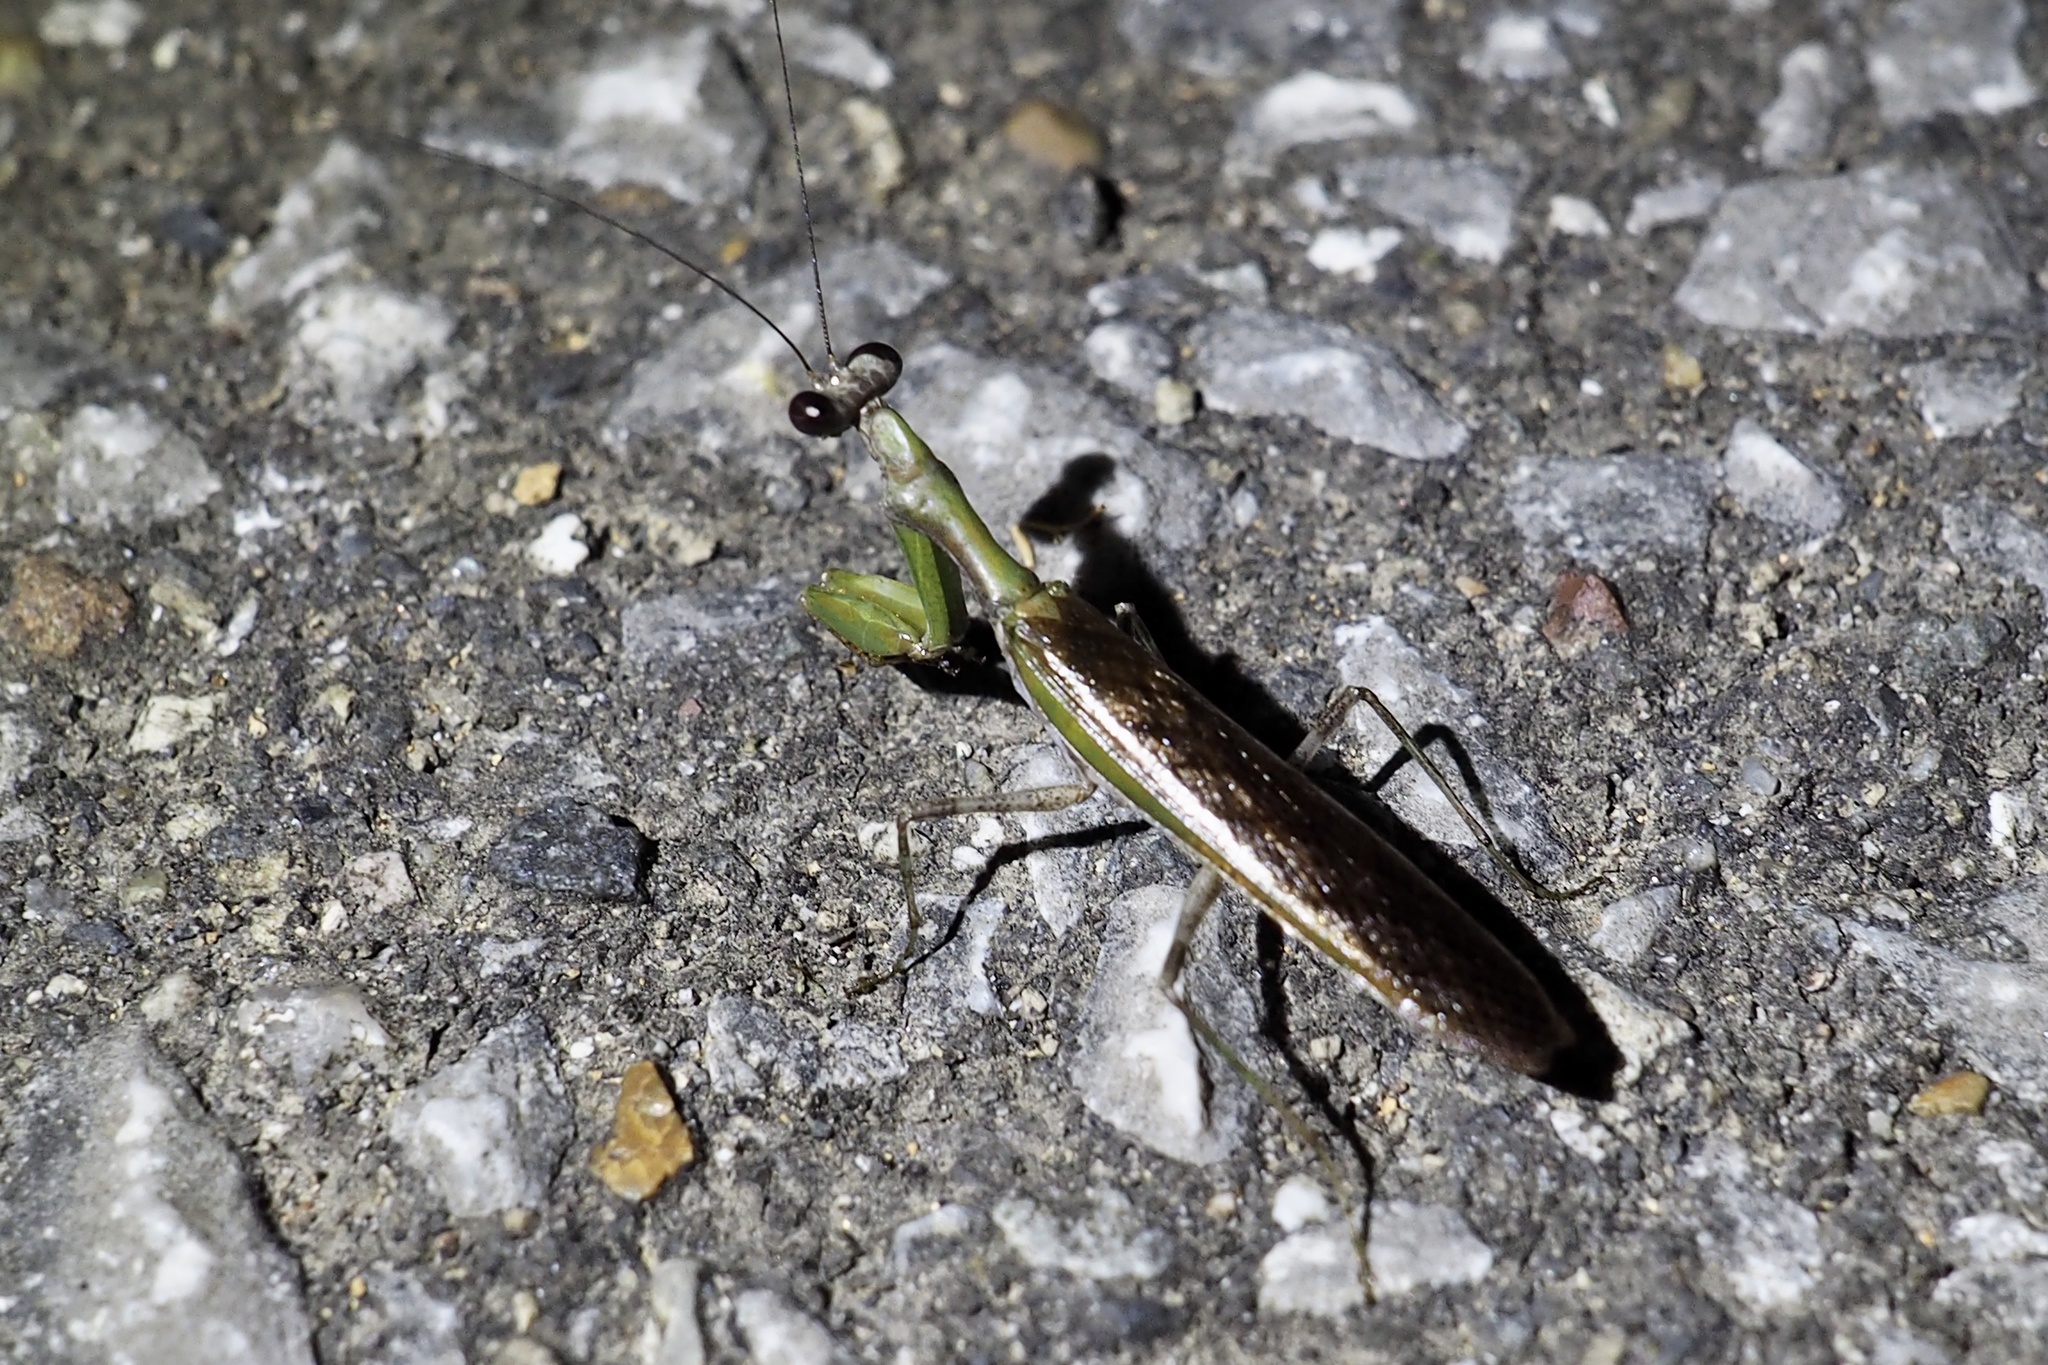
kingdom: Animalia
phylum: Arthropoda
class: Insecta
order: Mantodea
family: Hymenopodidae
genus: Acromantis
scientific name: Acromantis japonica
